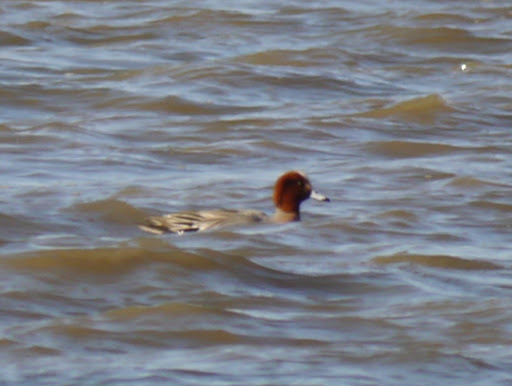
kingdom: Animalia
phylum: Chordata
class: Aves
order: Anseriformes
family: Anatidae
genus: Mareca
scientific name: Mareca penelope
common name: Eurasian wigeon
